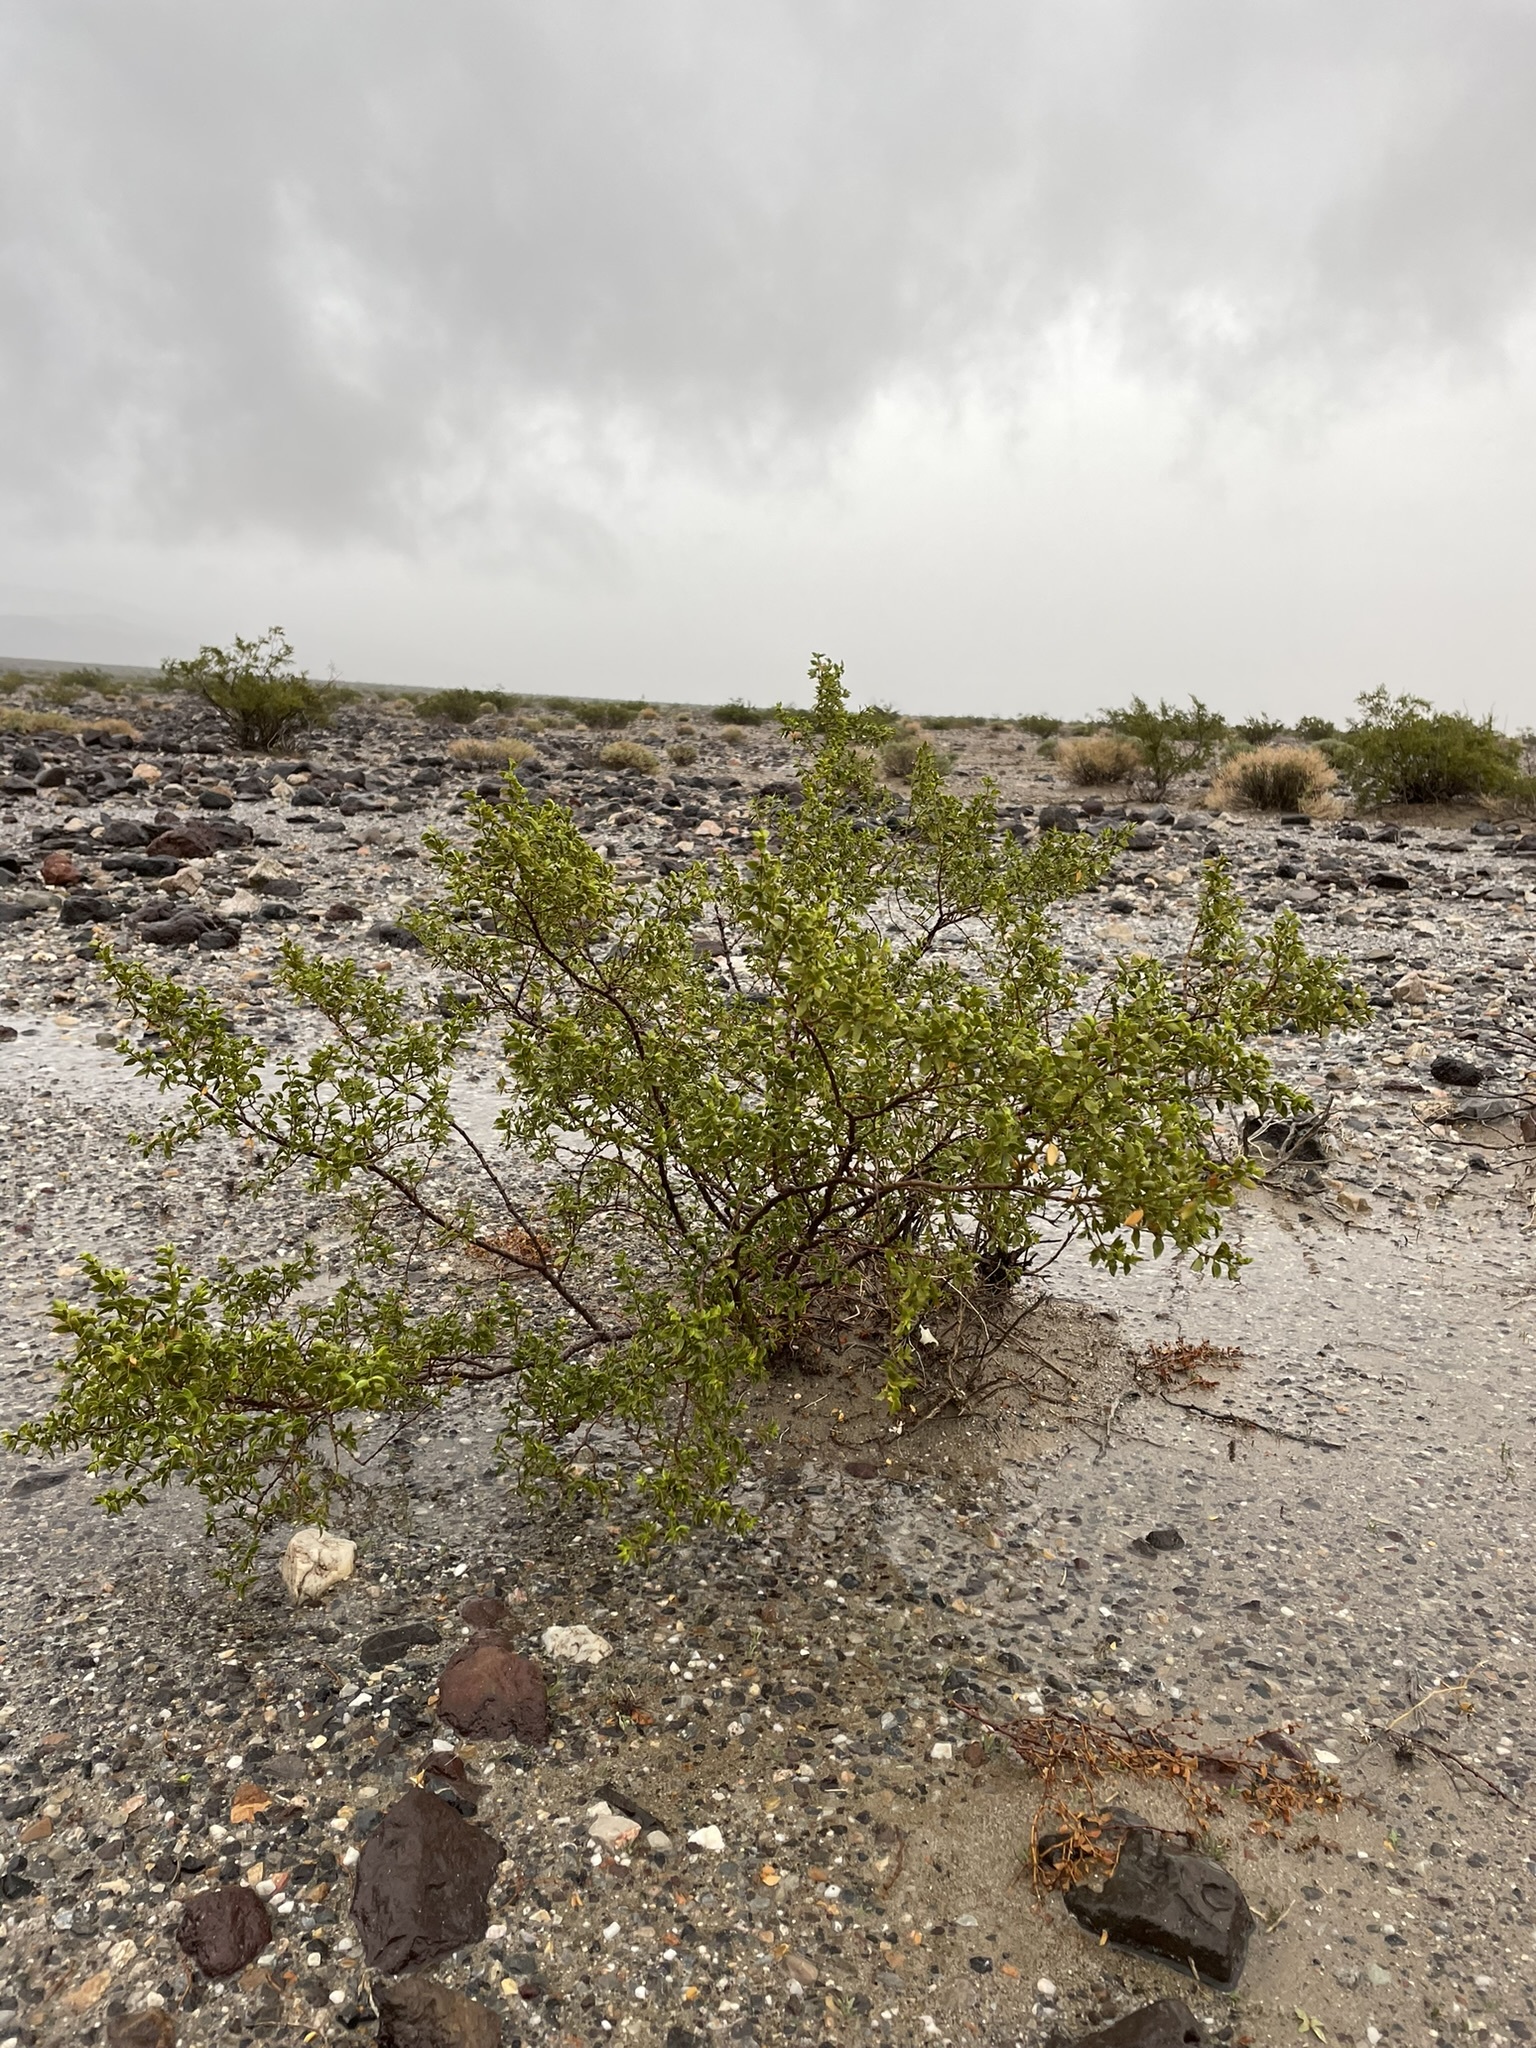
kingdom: Plantae
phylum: Tracheophyta
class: Magnoliopsida
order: Zygophyllales
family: Zygophyllaceae
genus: Larrea
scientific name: Larrea tridentata
